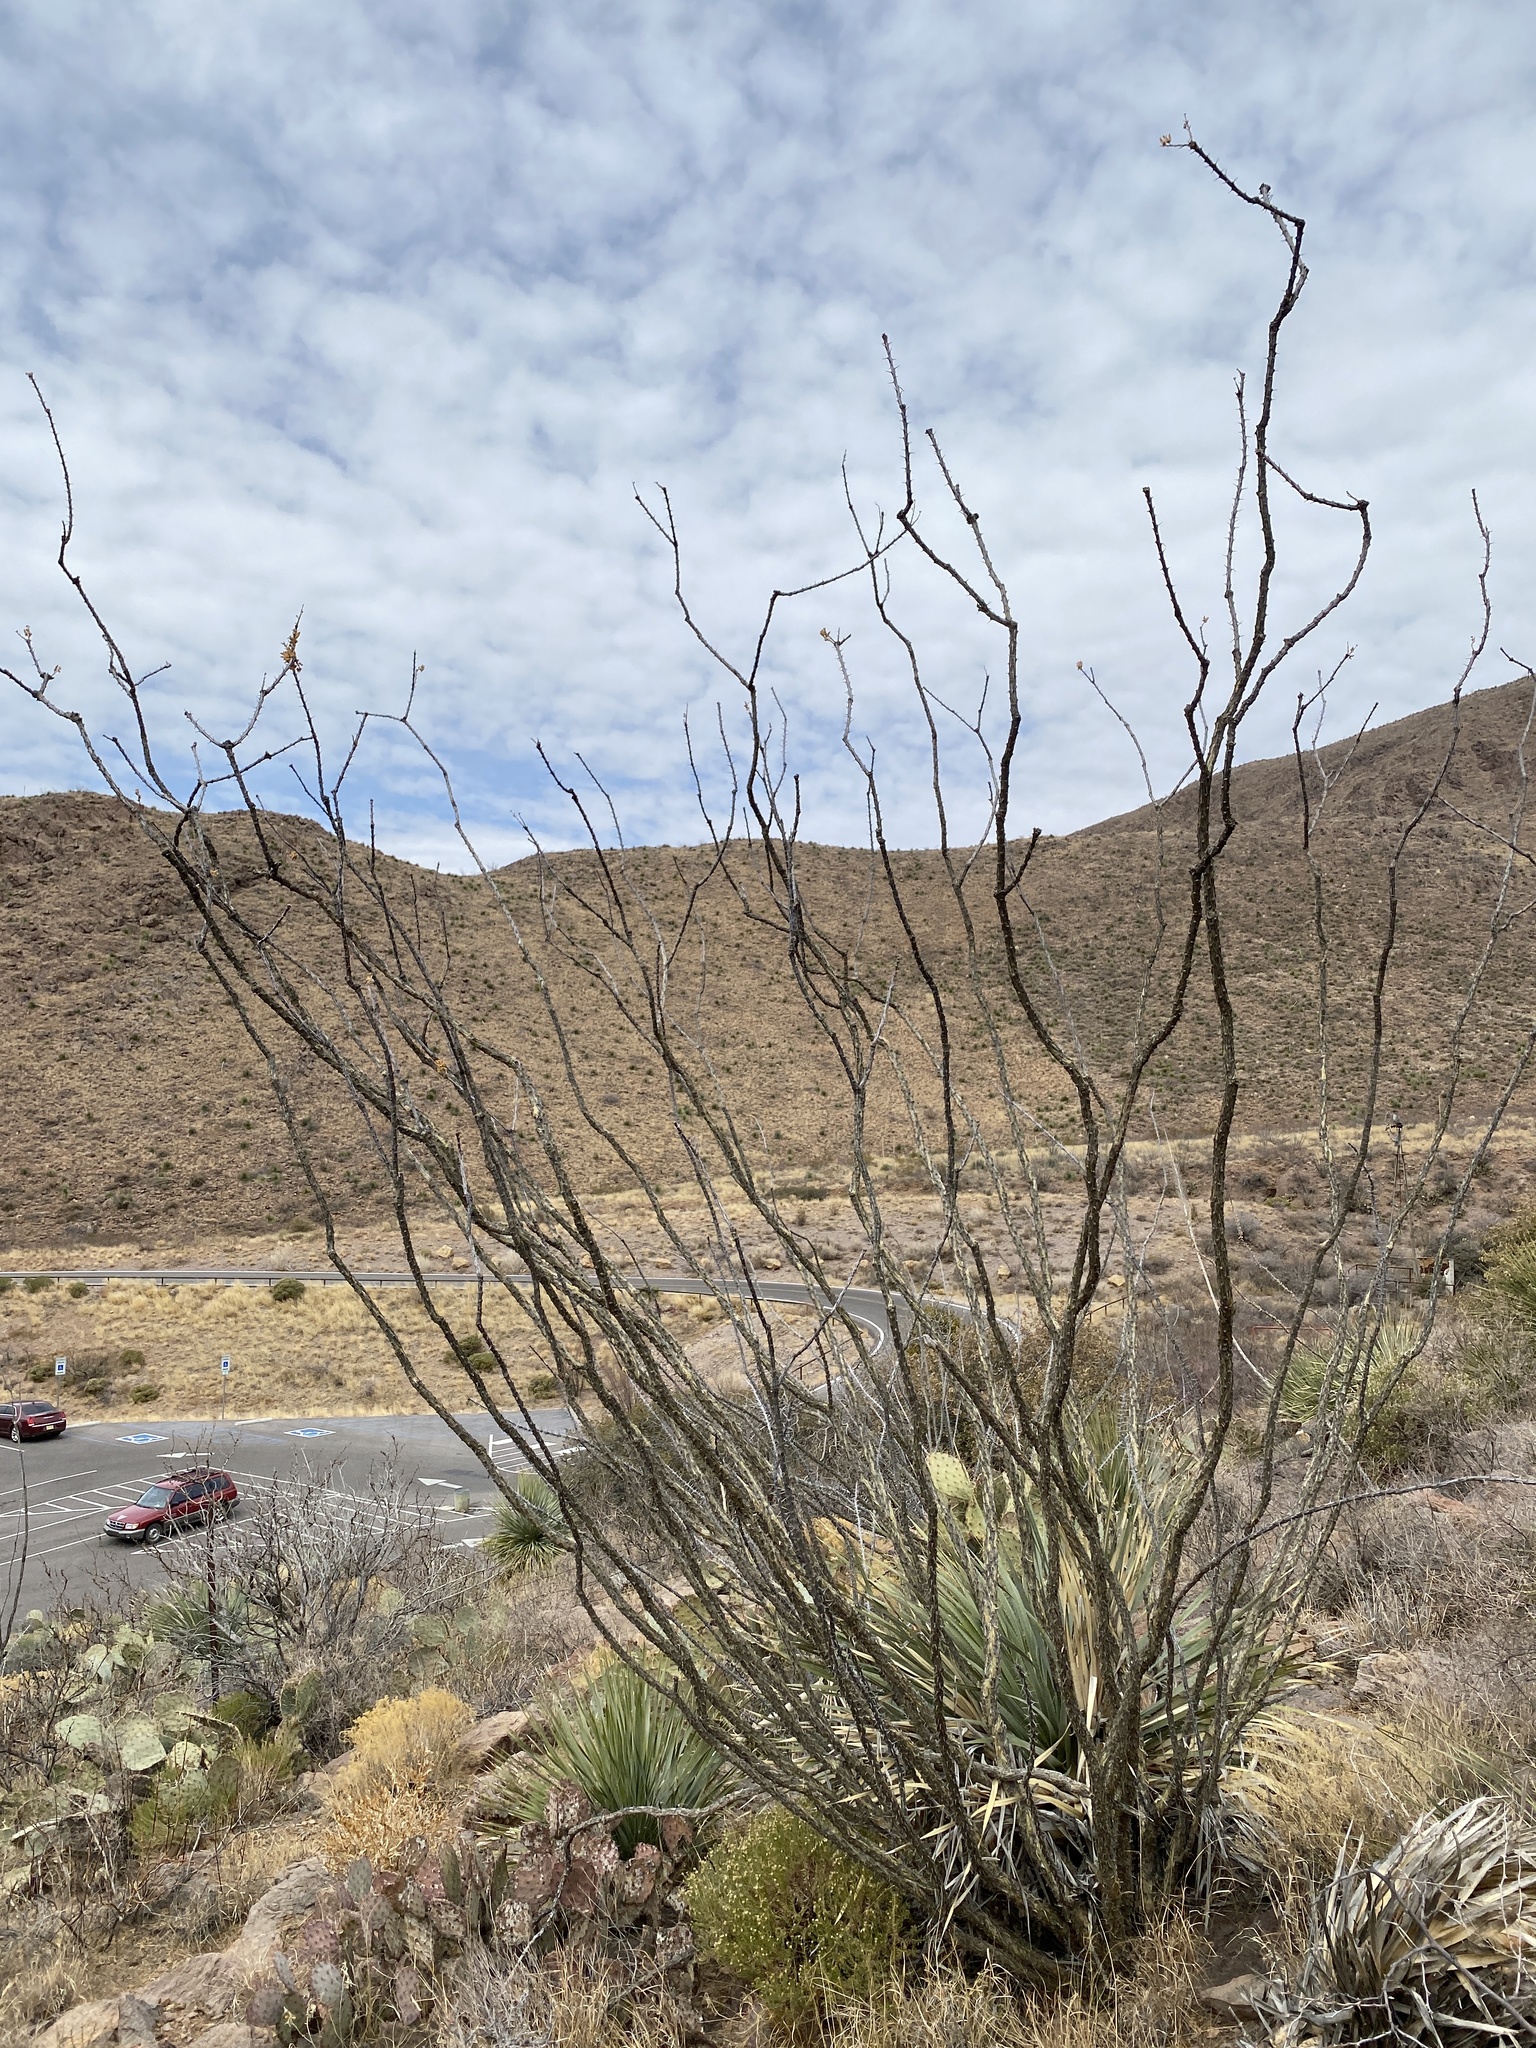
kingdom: Plantae
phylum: Tracheophyta
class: Magnoliopsida
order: Ericales
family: Fouquieriaceae
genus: Fouquieria
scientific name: Fouquieria splendens
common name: Vine-cactus
